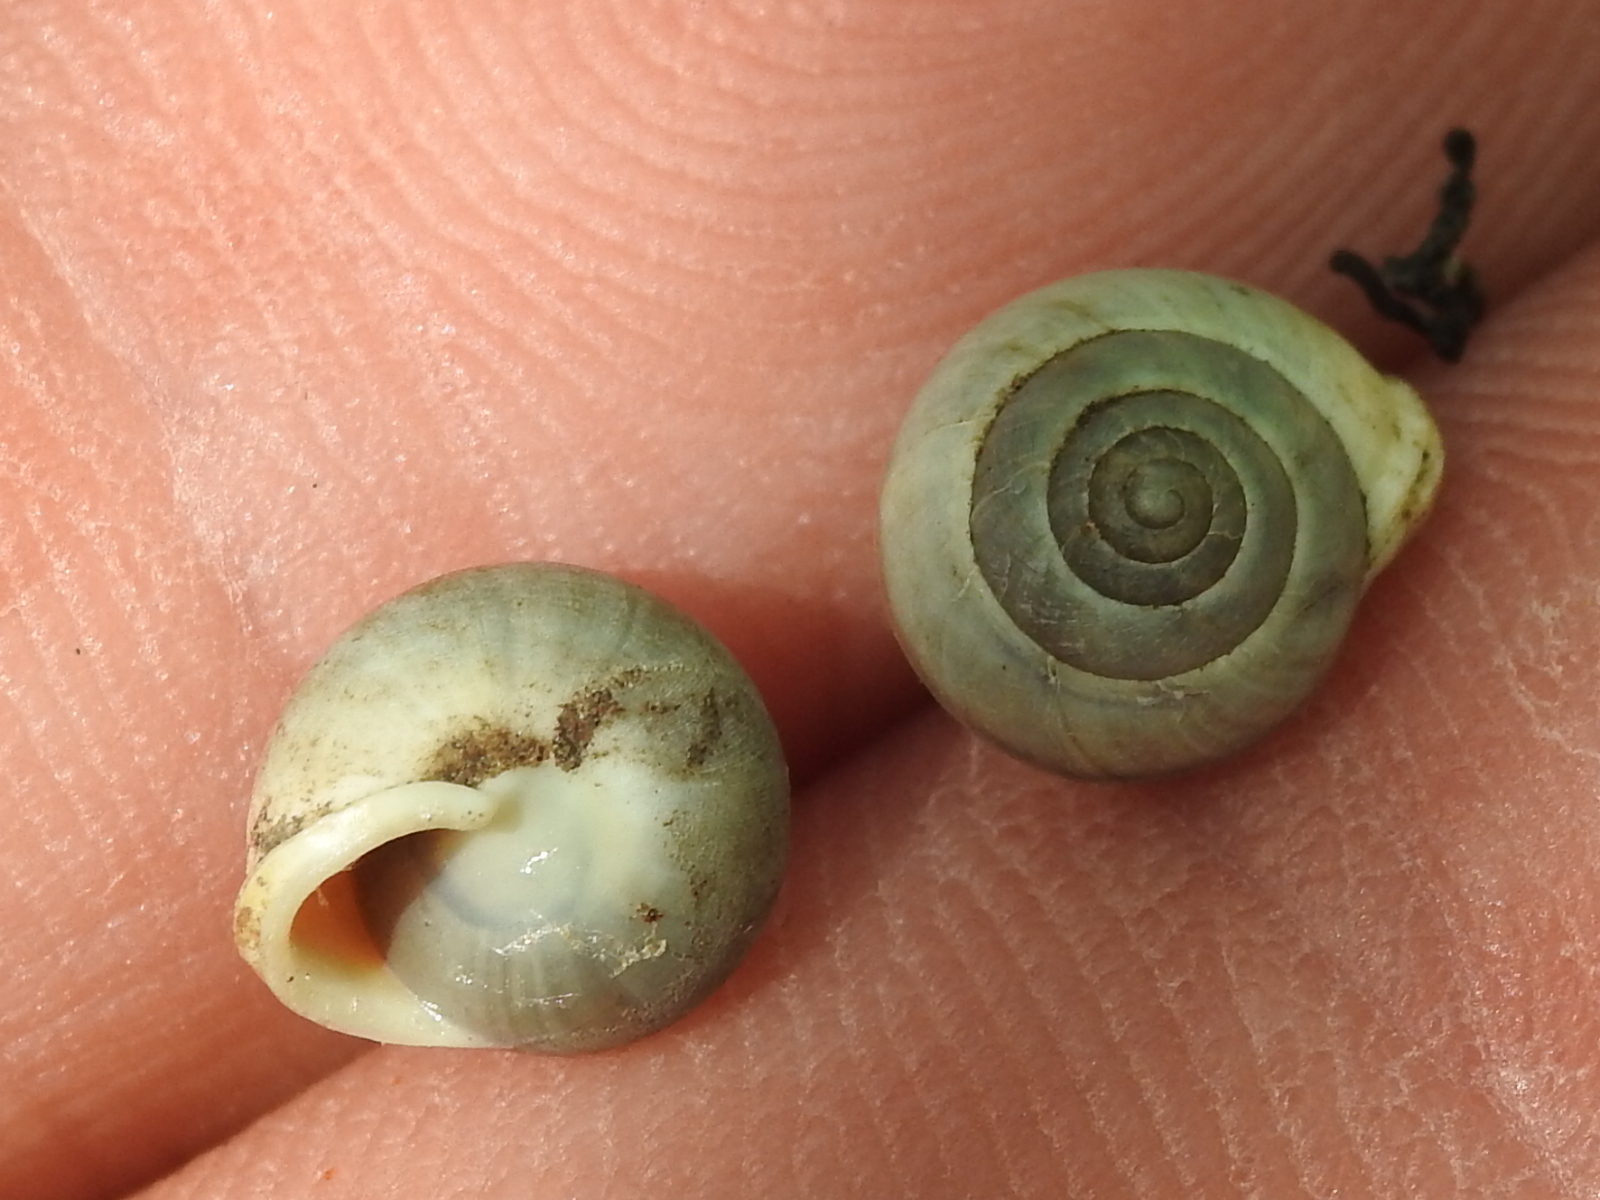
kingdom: Animalia
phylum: Mollusca
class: Gastropoda
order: Cycloneritida
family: Helicinidae
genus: Helicina
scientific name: Helicina orbiculata
